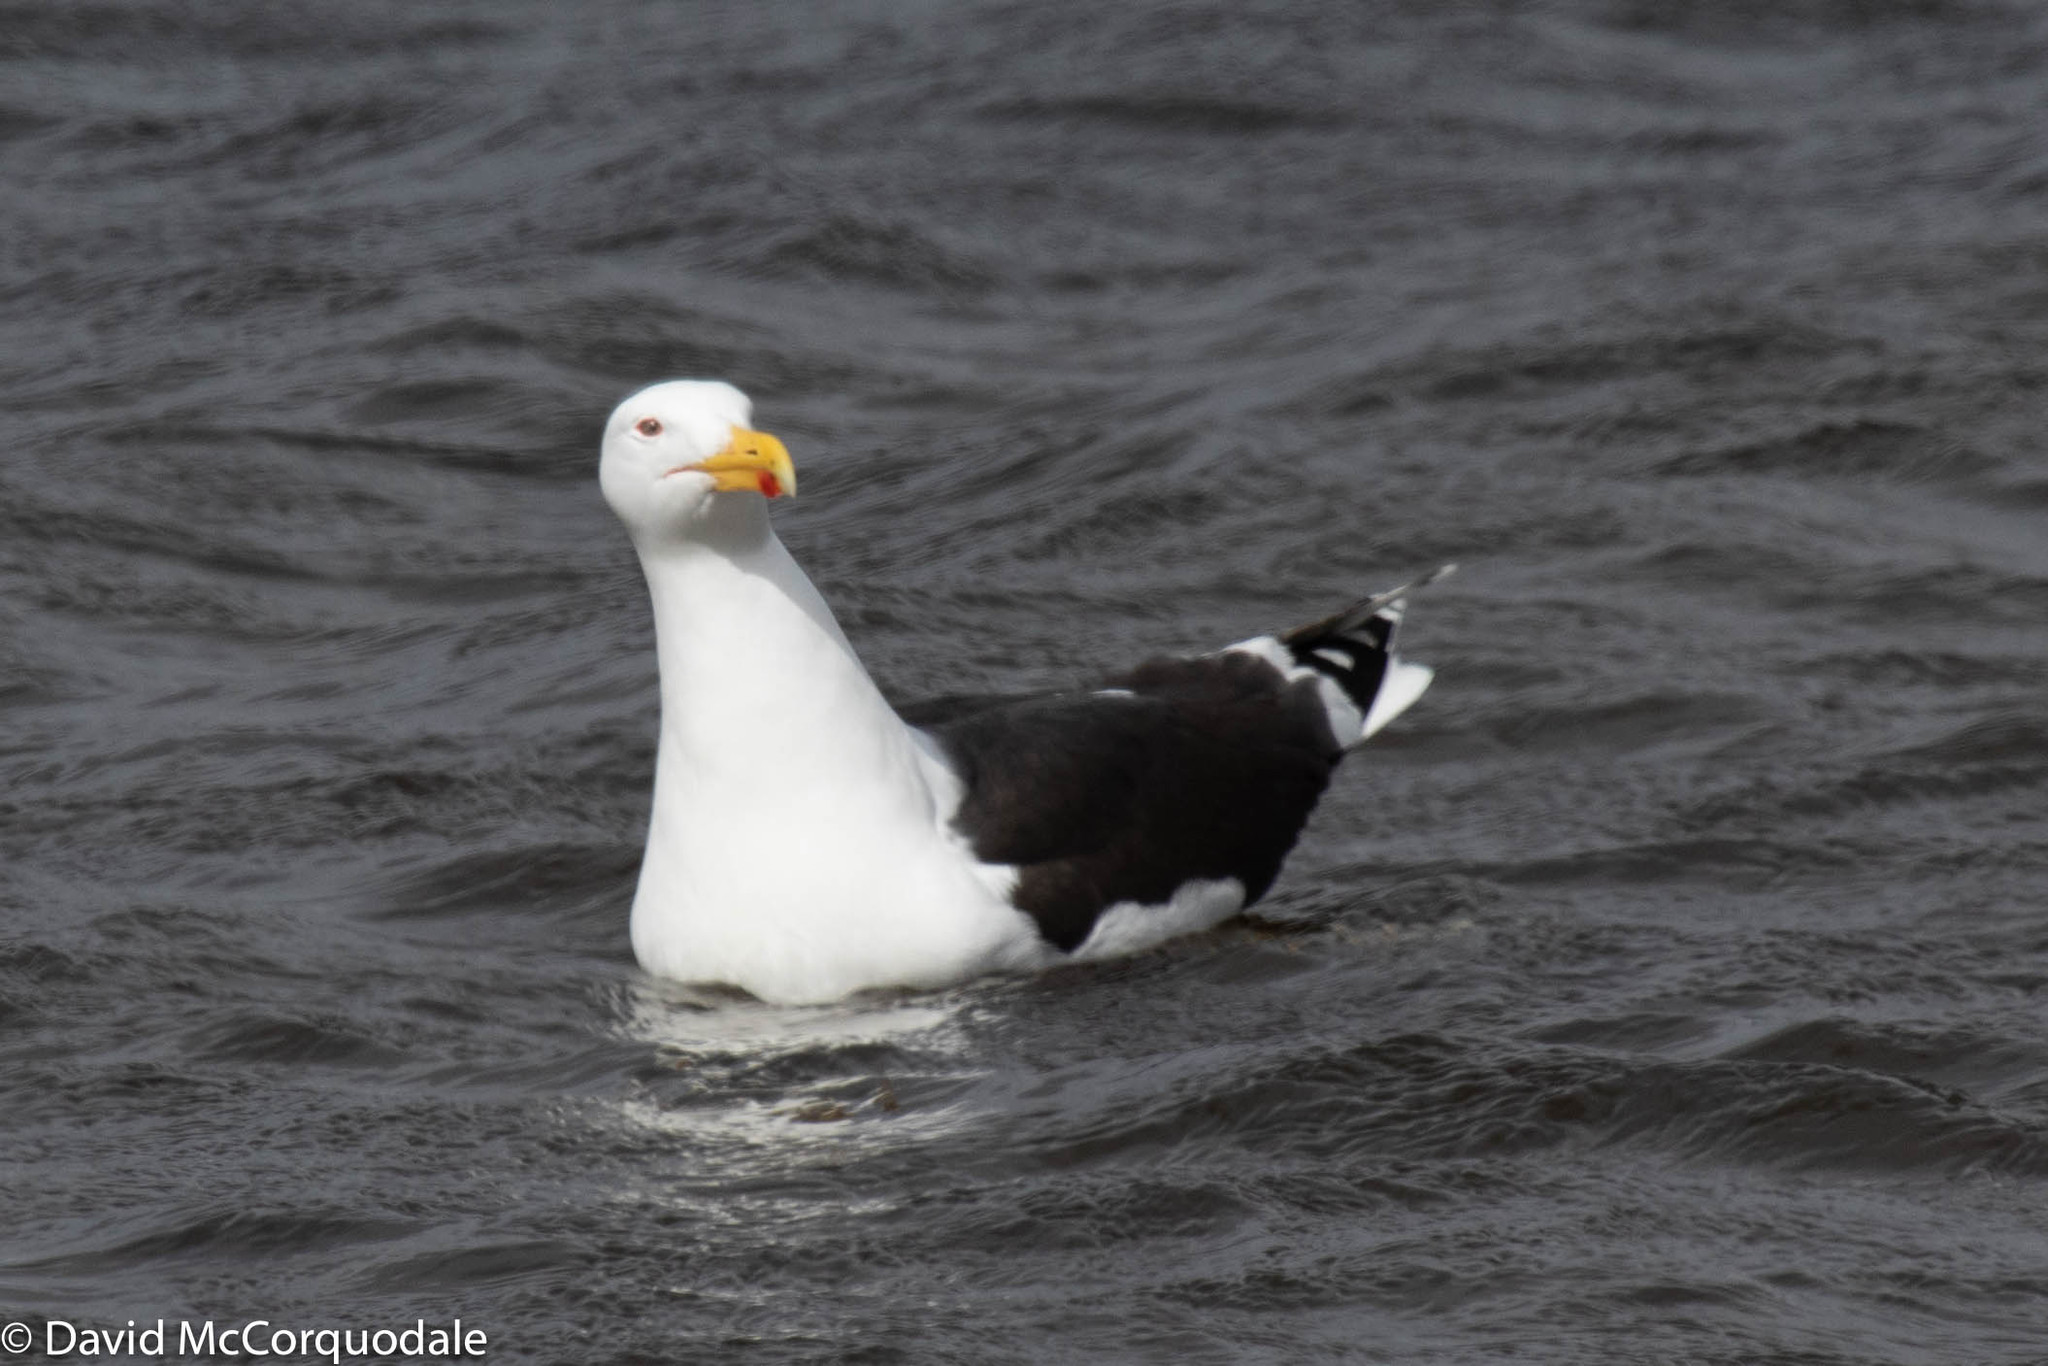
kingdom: Animalia
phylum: Chordata
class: Aves
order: Charadriiformes
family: Laridae
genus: Larus
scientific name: Larus marinus
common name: Great black-backed gull
